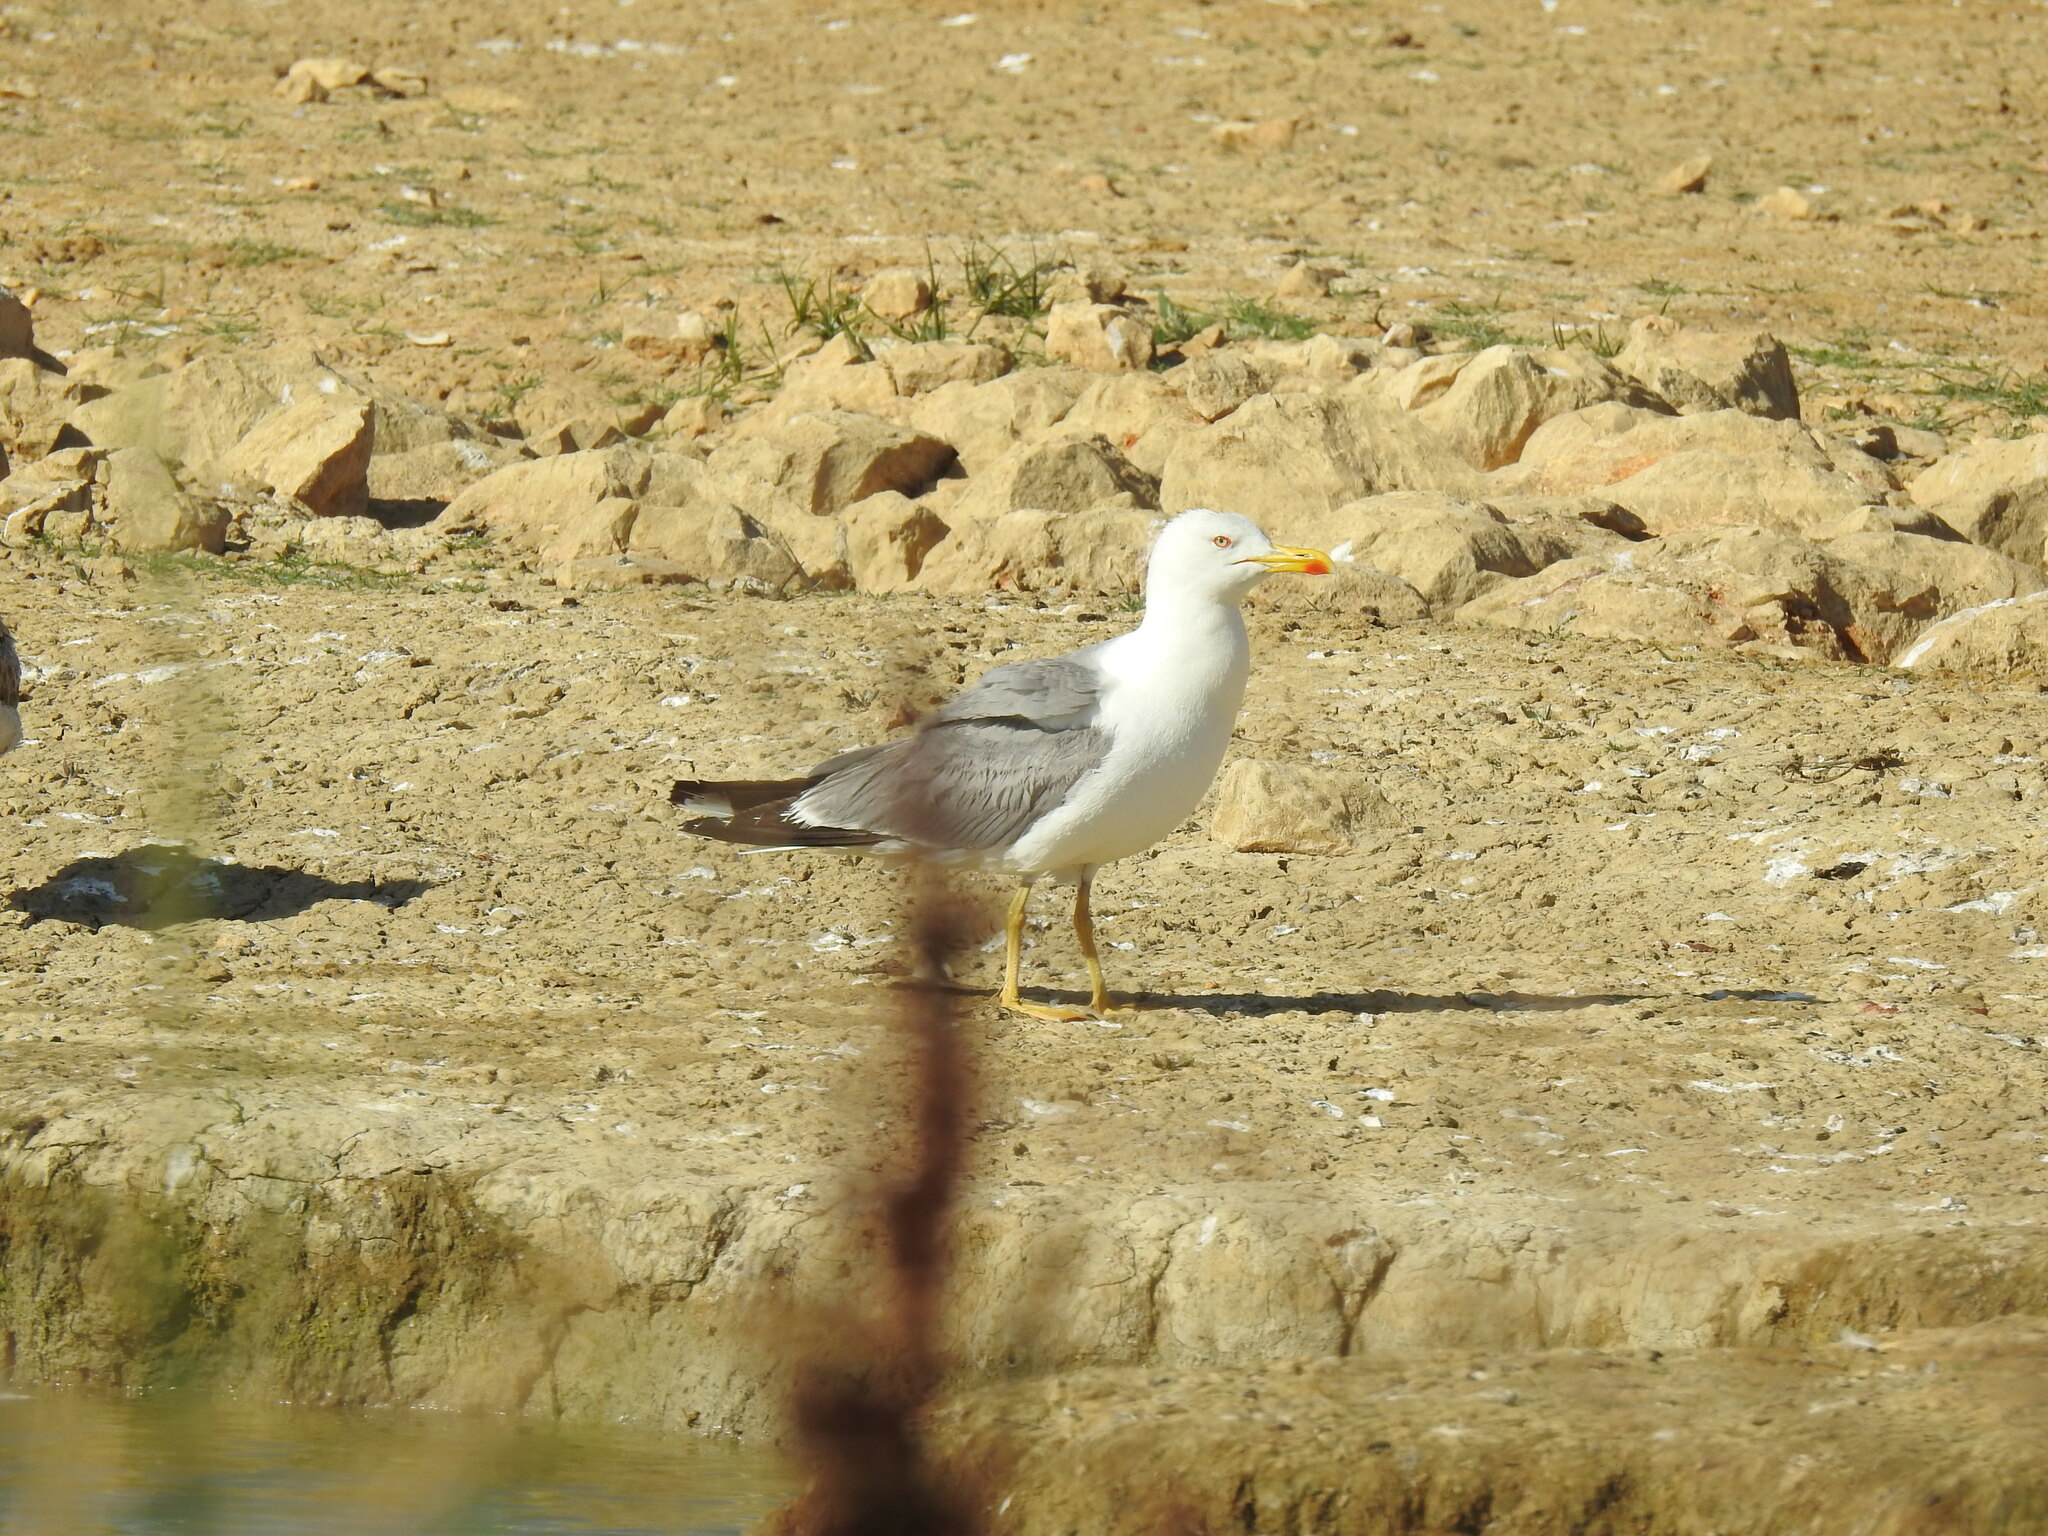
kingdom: Animalia
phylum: Chordata
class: Aves
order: Charadriiformes
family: Laridae
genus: Larus
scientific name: Larus michahellis
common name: Yellow-legged gull
